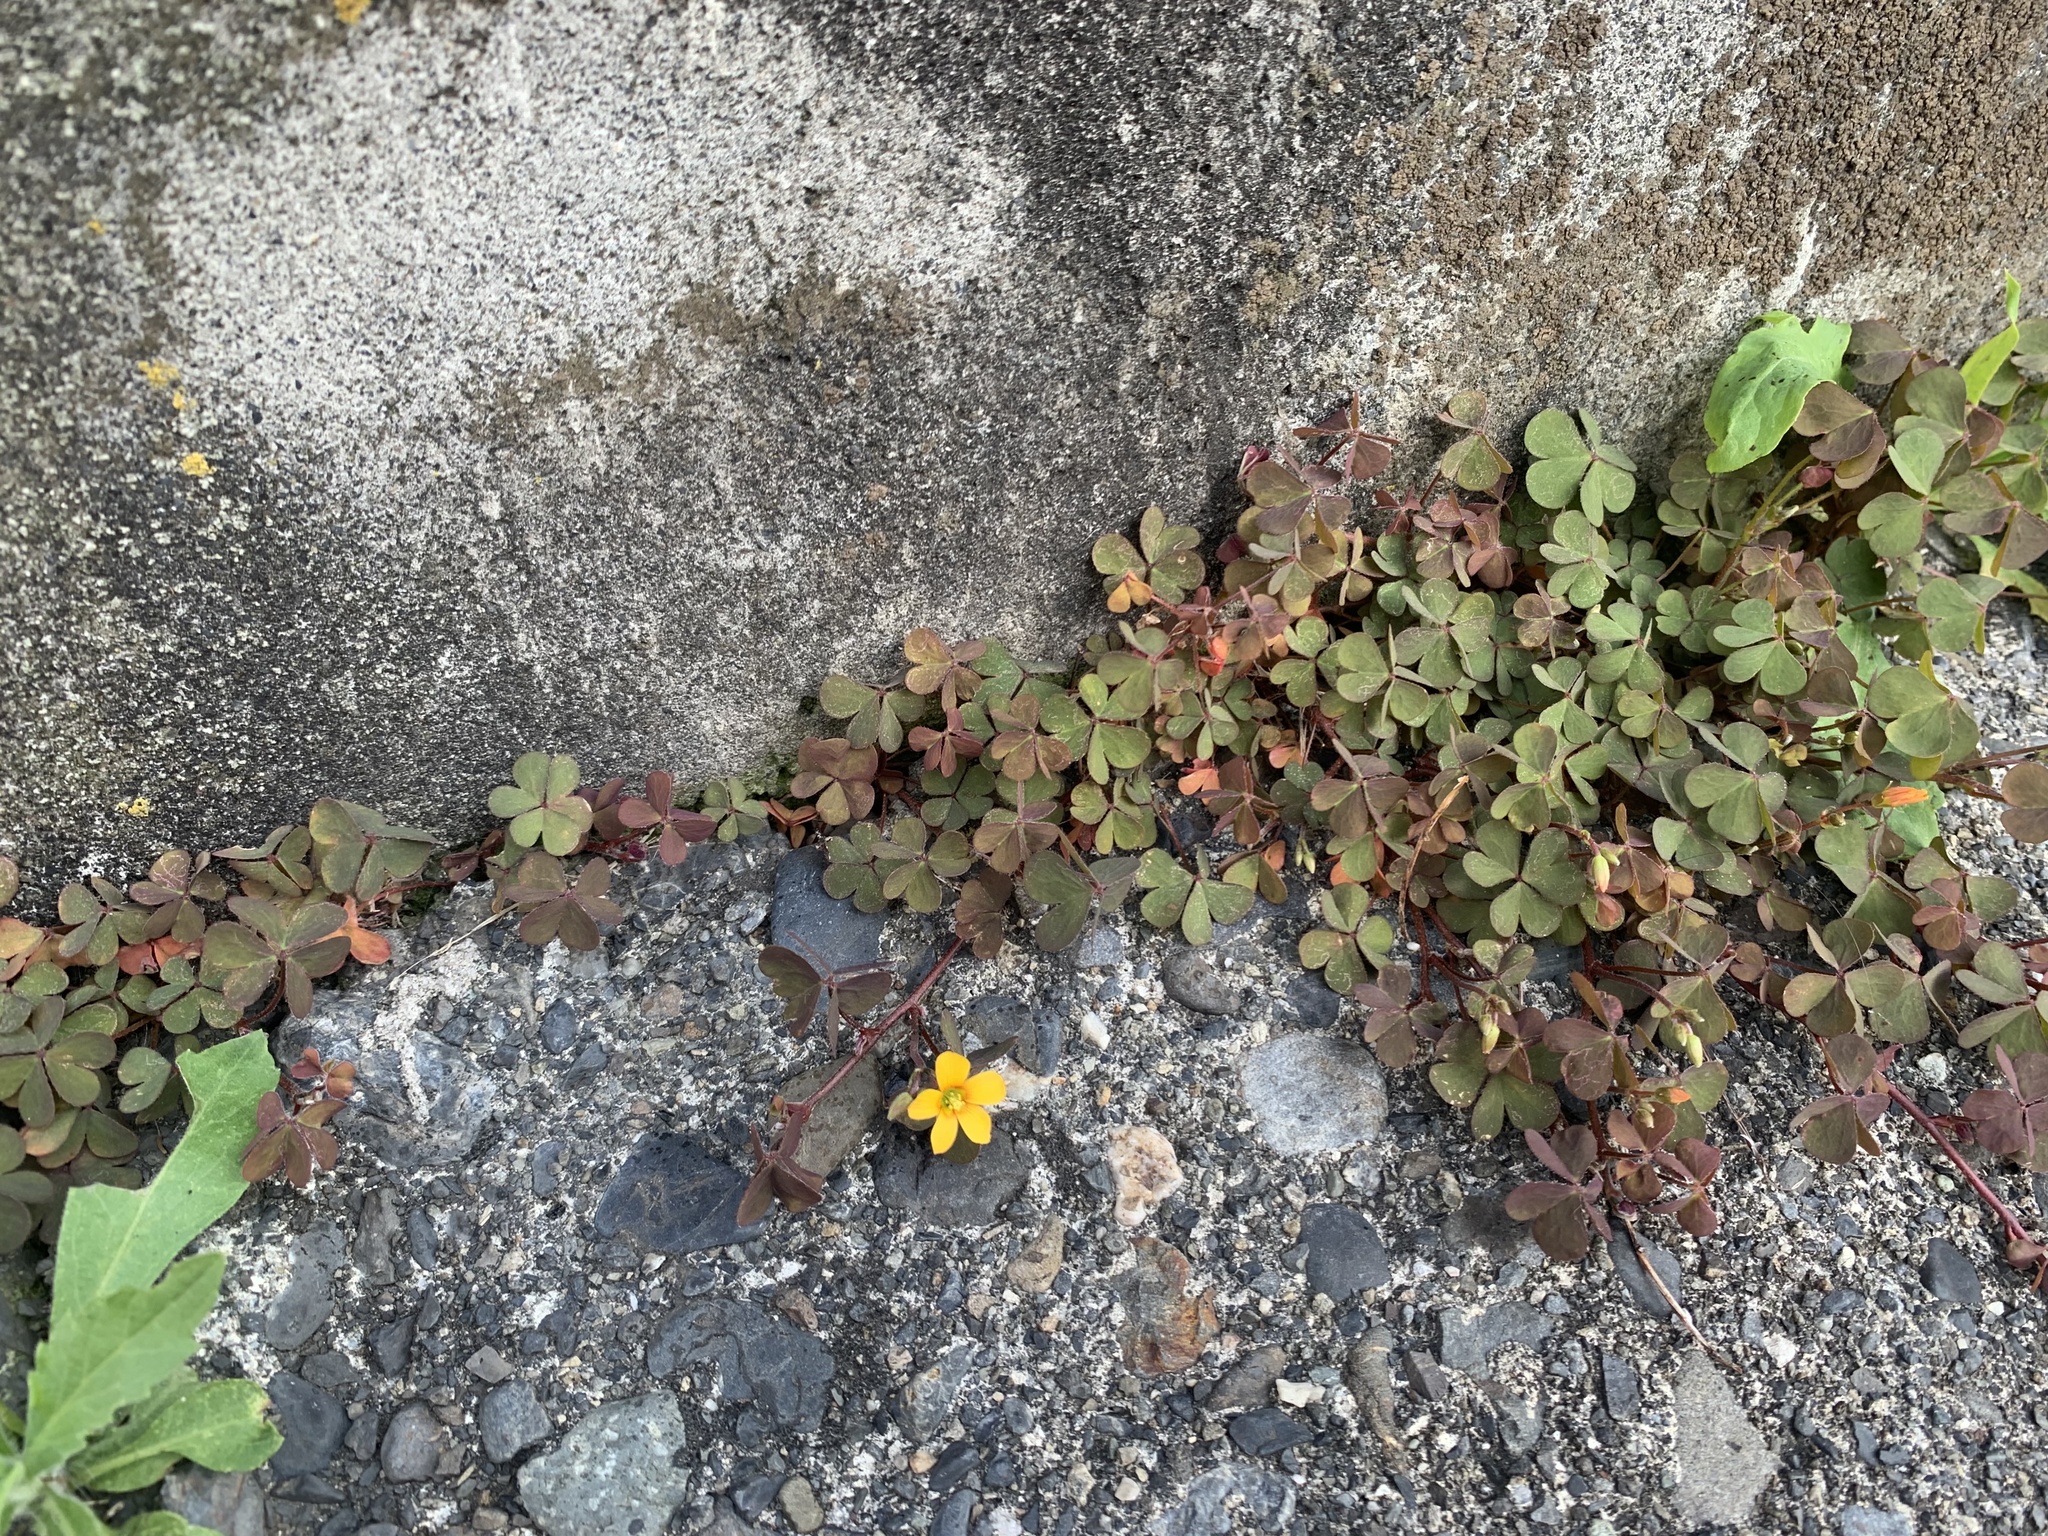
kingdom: Plantae
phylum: Tracheophyta
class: Magnoliopsida
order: Oxalidales
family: Oxalidaceae
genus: Oxalis
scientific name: Oxalis corniculata
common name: Procumbent yellow-sorrel
